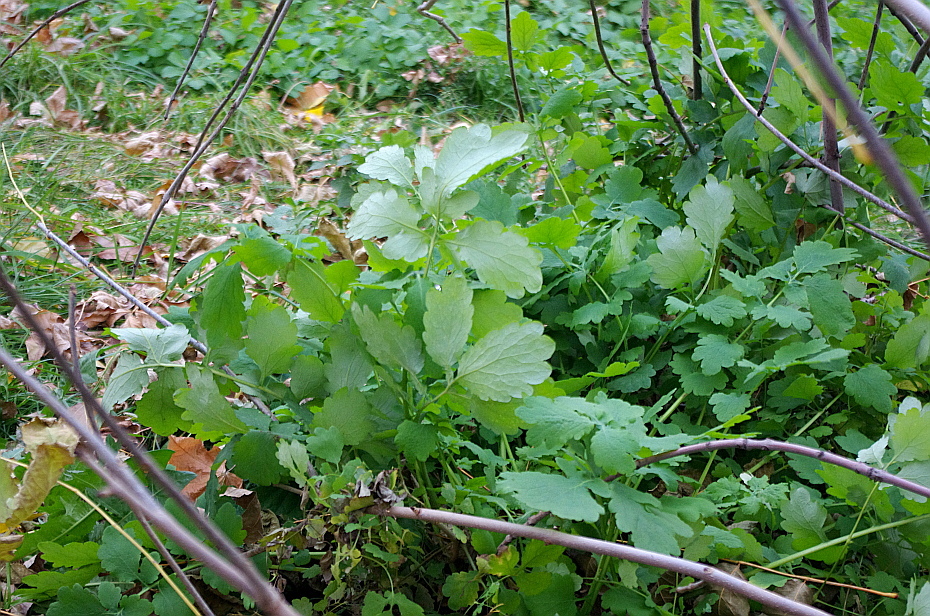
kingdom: Plantae
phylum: Tracheophyta
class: Magnoliopsida
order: Ranunculales
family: Papaveraceae
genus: Chelidonium
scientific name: Chelidonium majus
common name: Greater celandine
